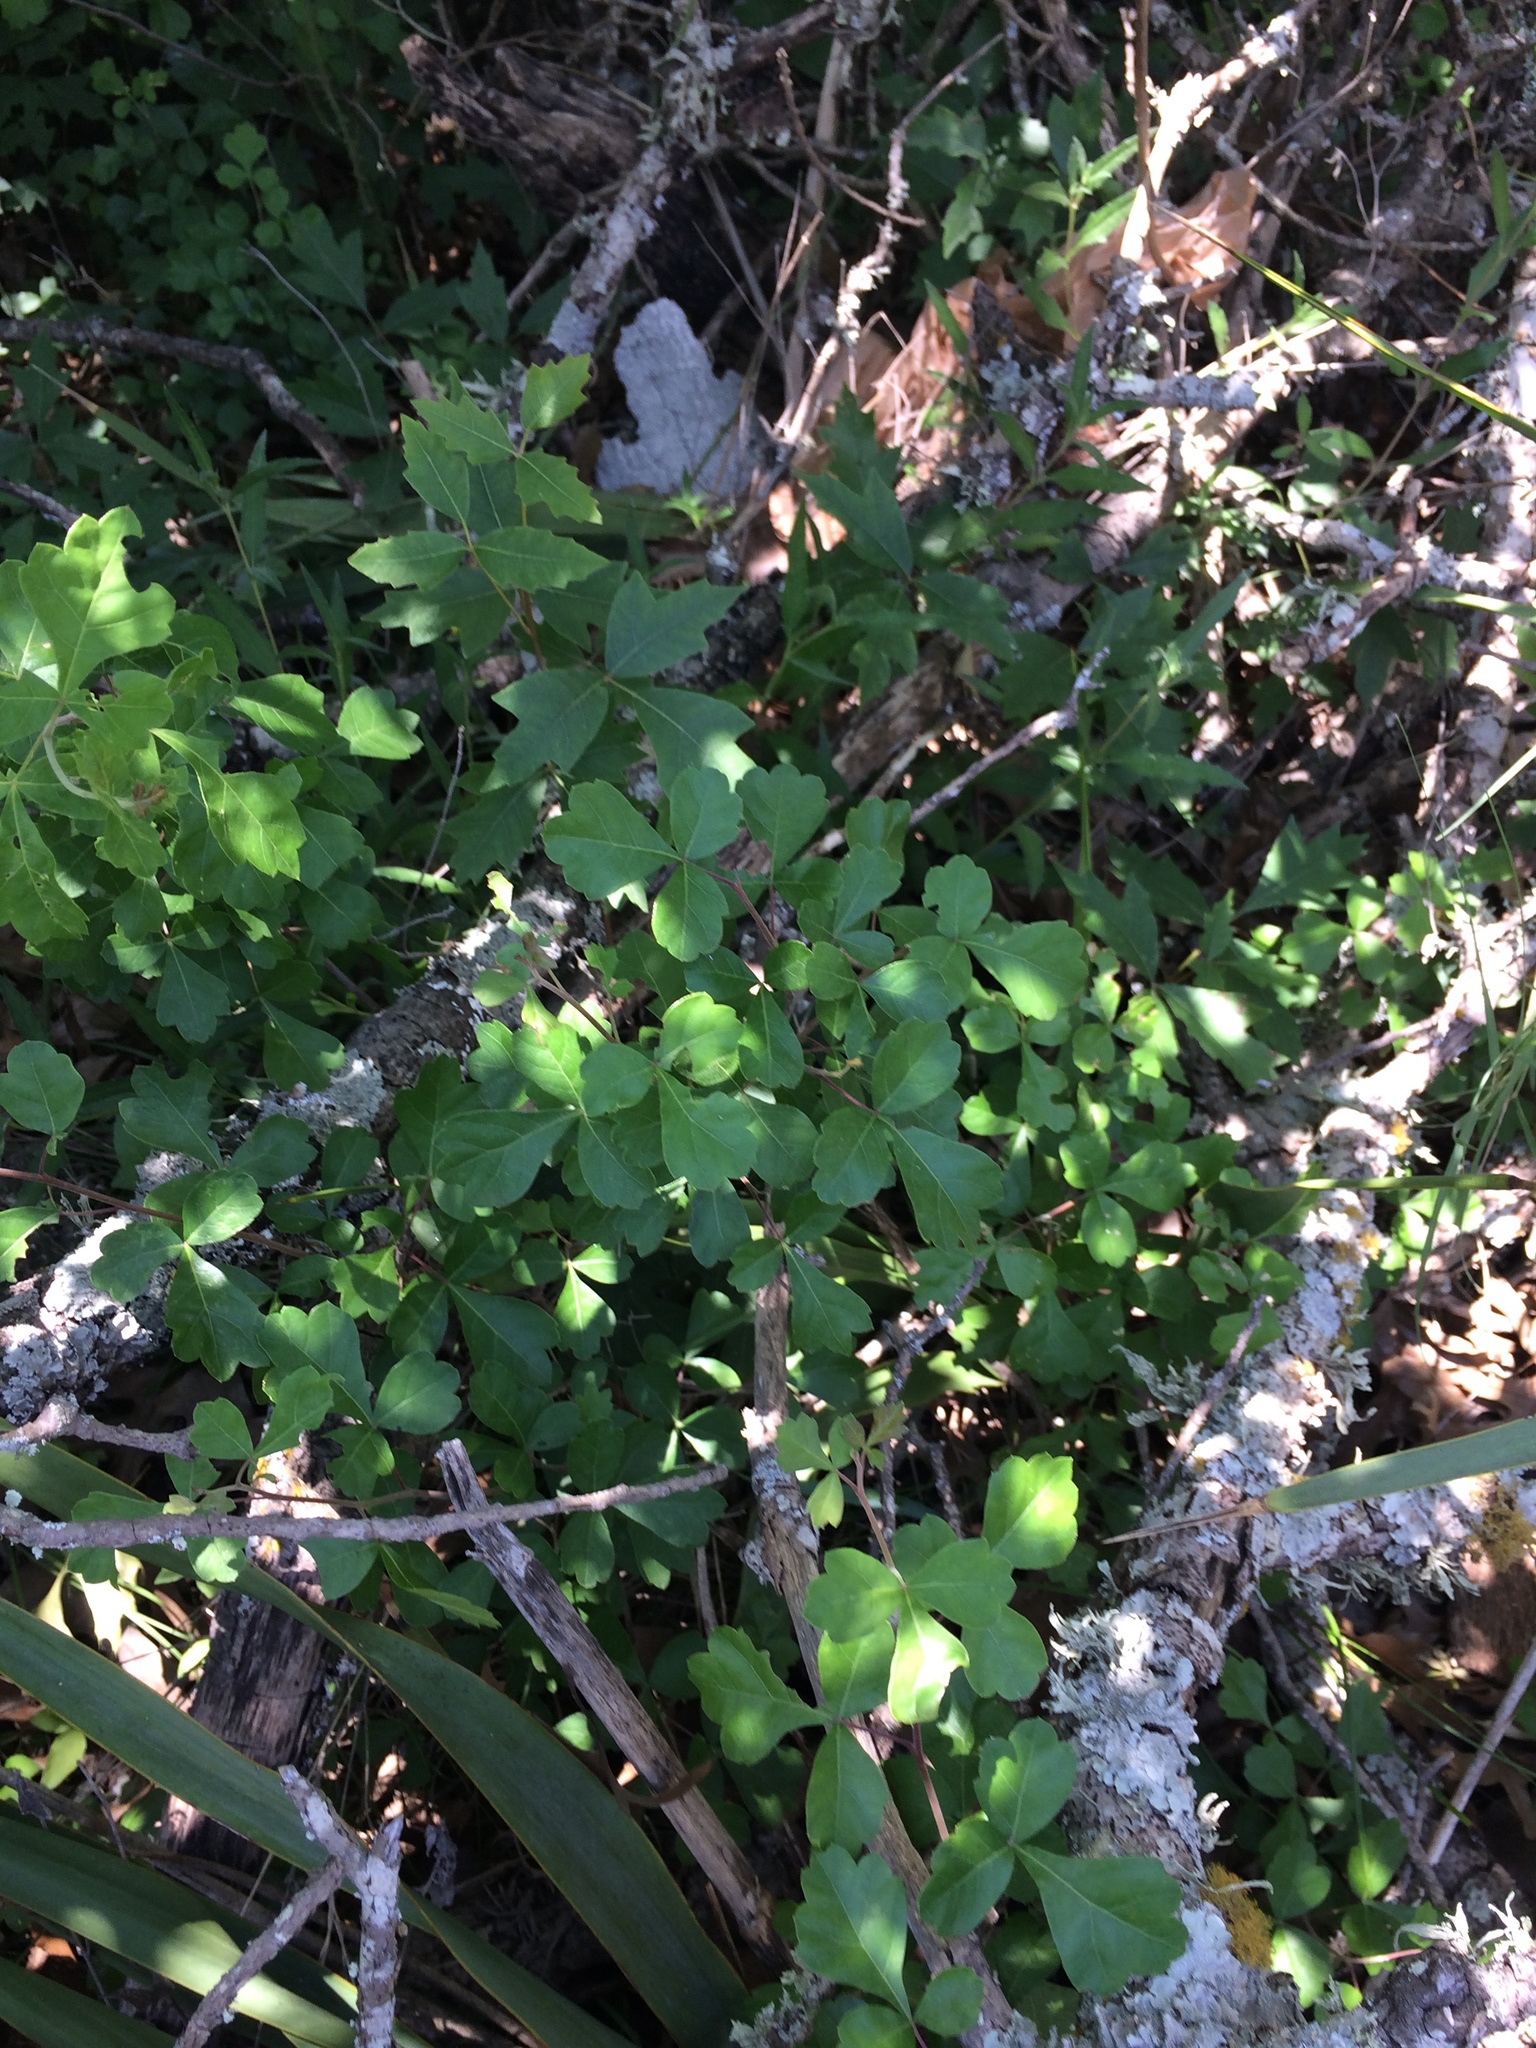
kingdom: Plantae
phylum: Tracheophyta
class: Magnoliopsida
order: Sapindales
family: Anacardiaceae
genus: Rhus
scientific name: Rhus aromatica
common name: Aromatic sumac
